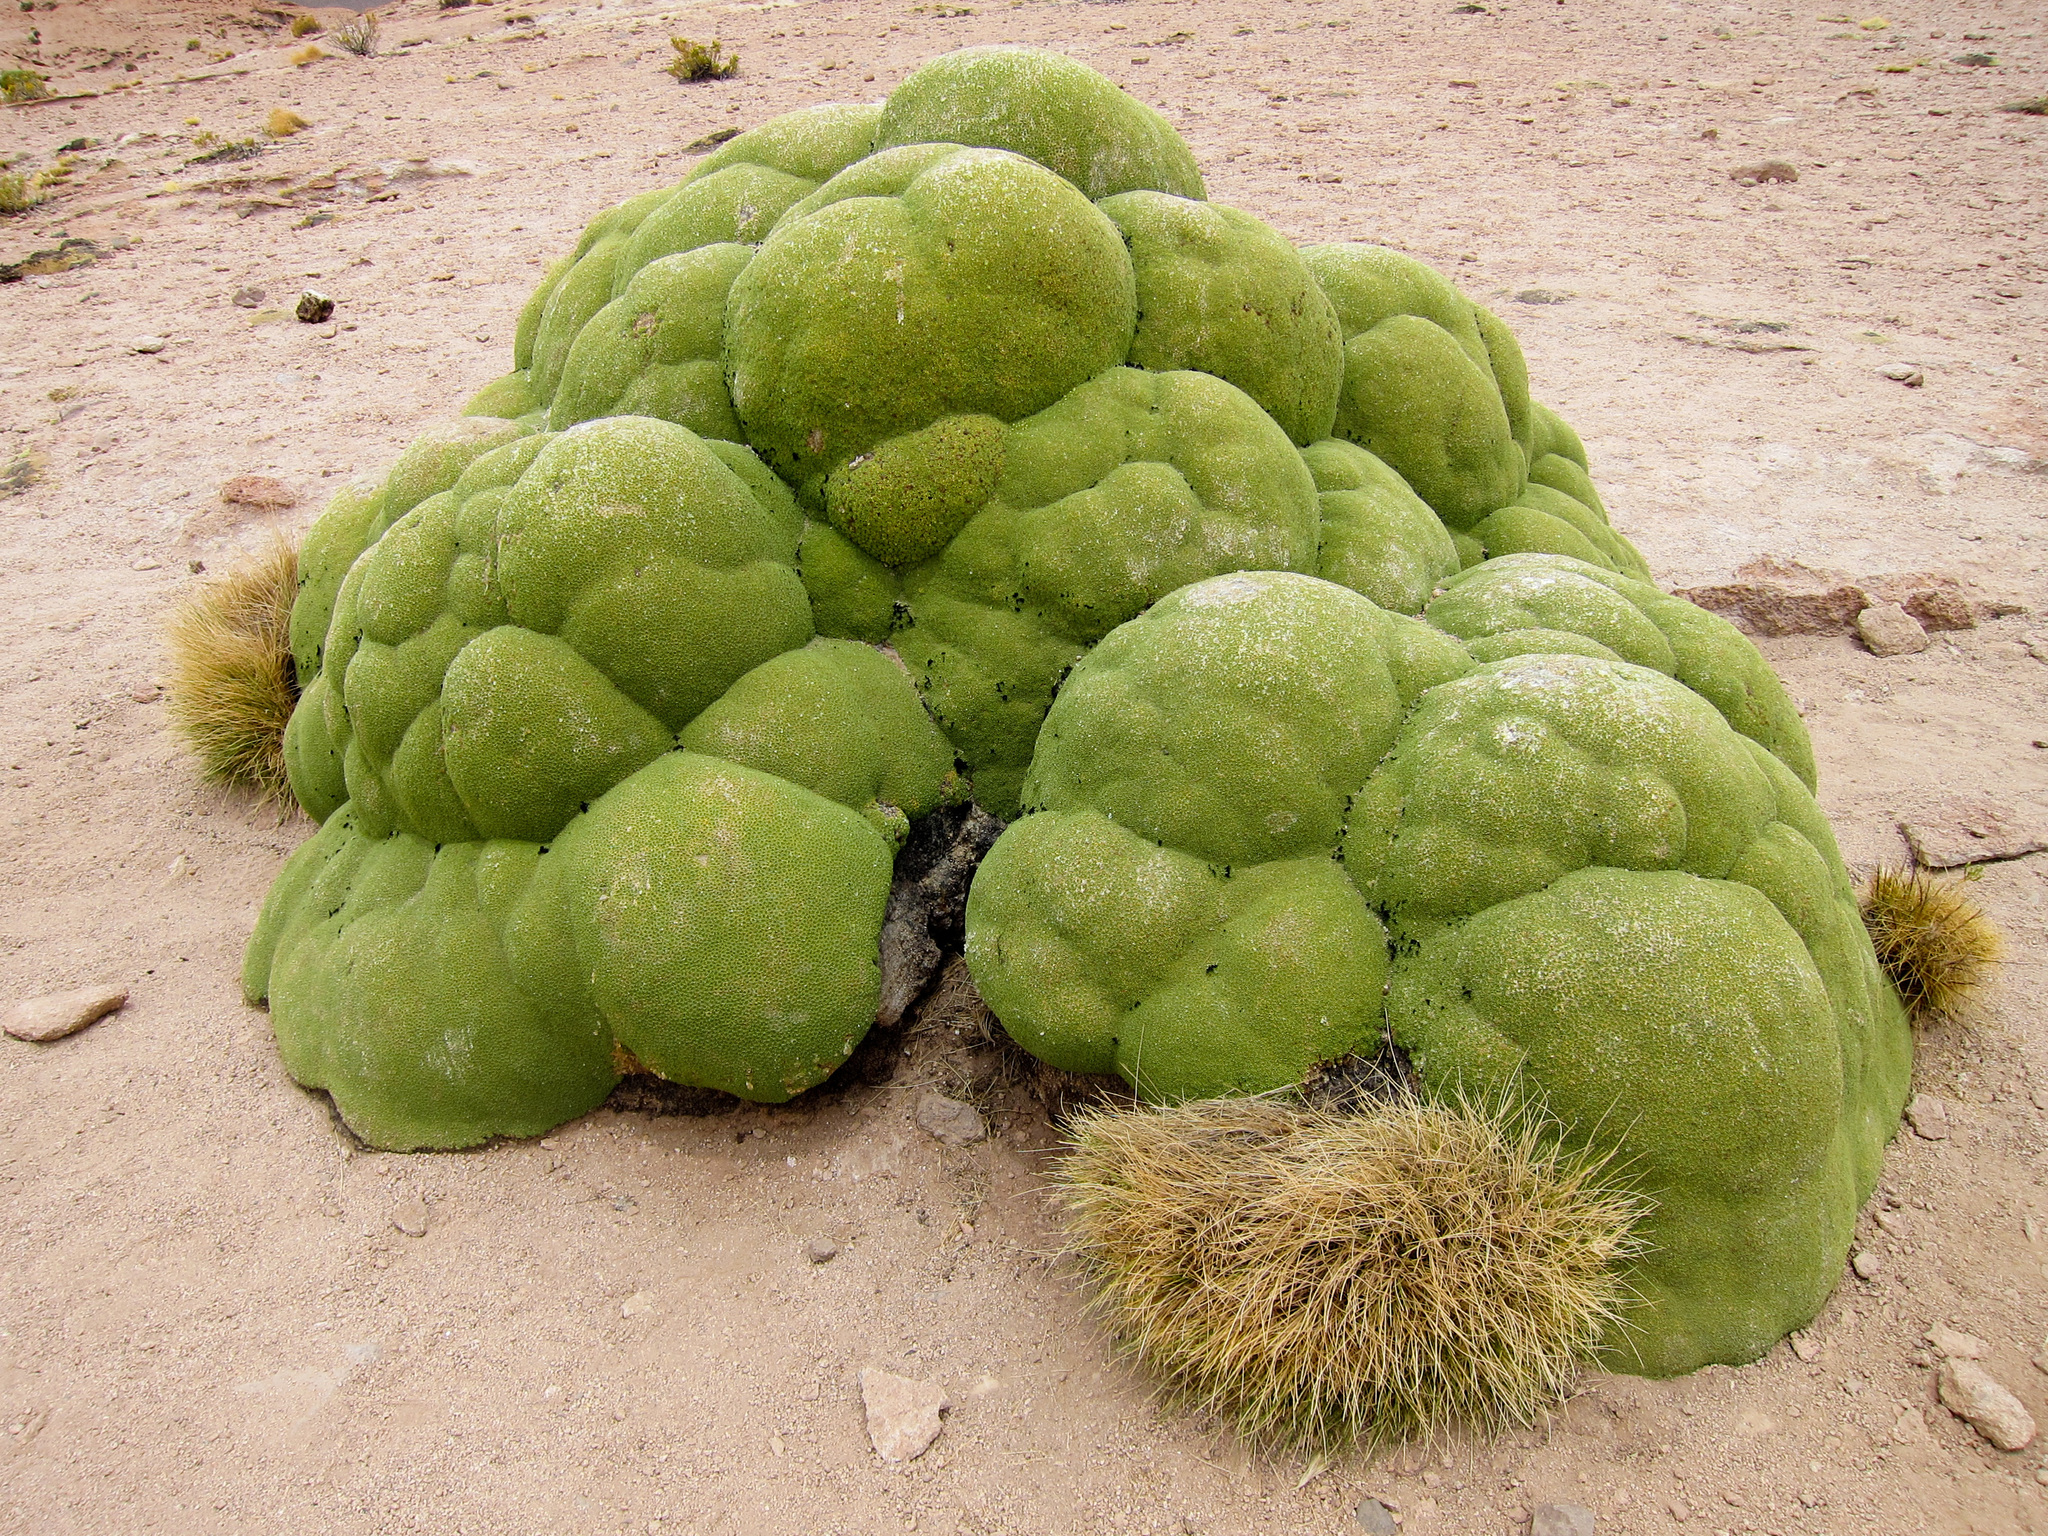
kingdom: Plantae
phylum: Tracheophyta
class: Magnoliopsida
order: Apiales
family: Apiaceae
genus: Azorella
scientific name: Azorella compacta
